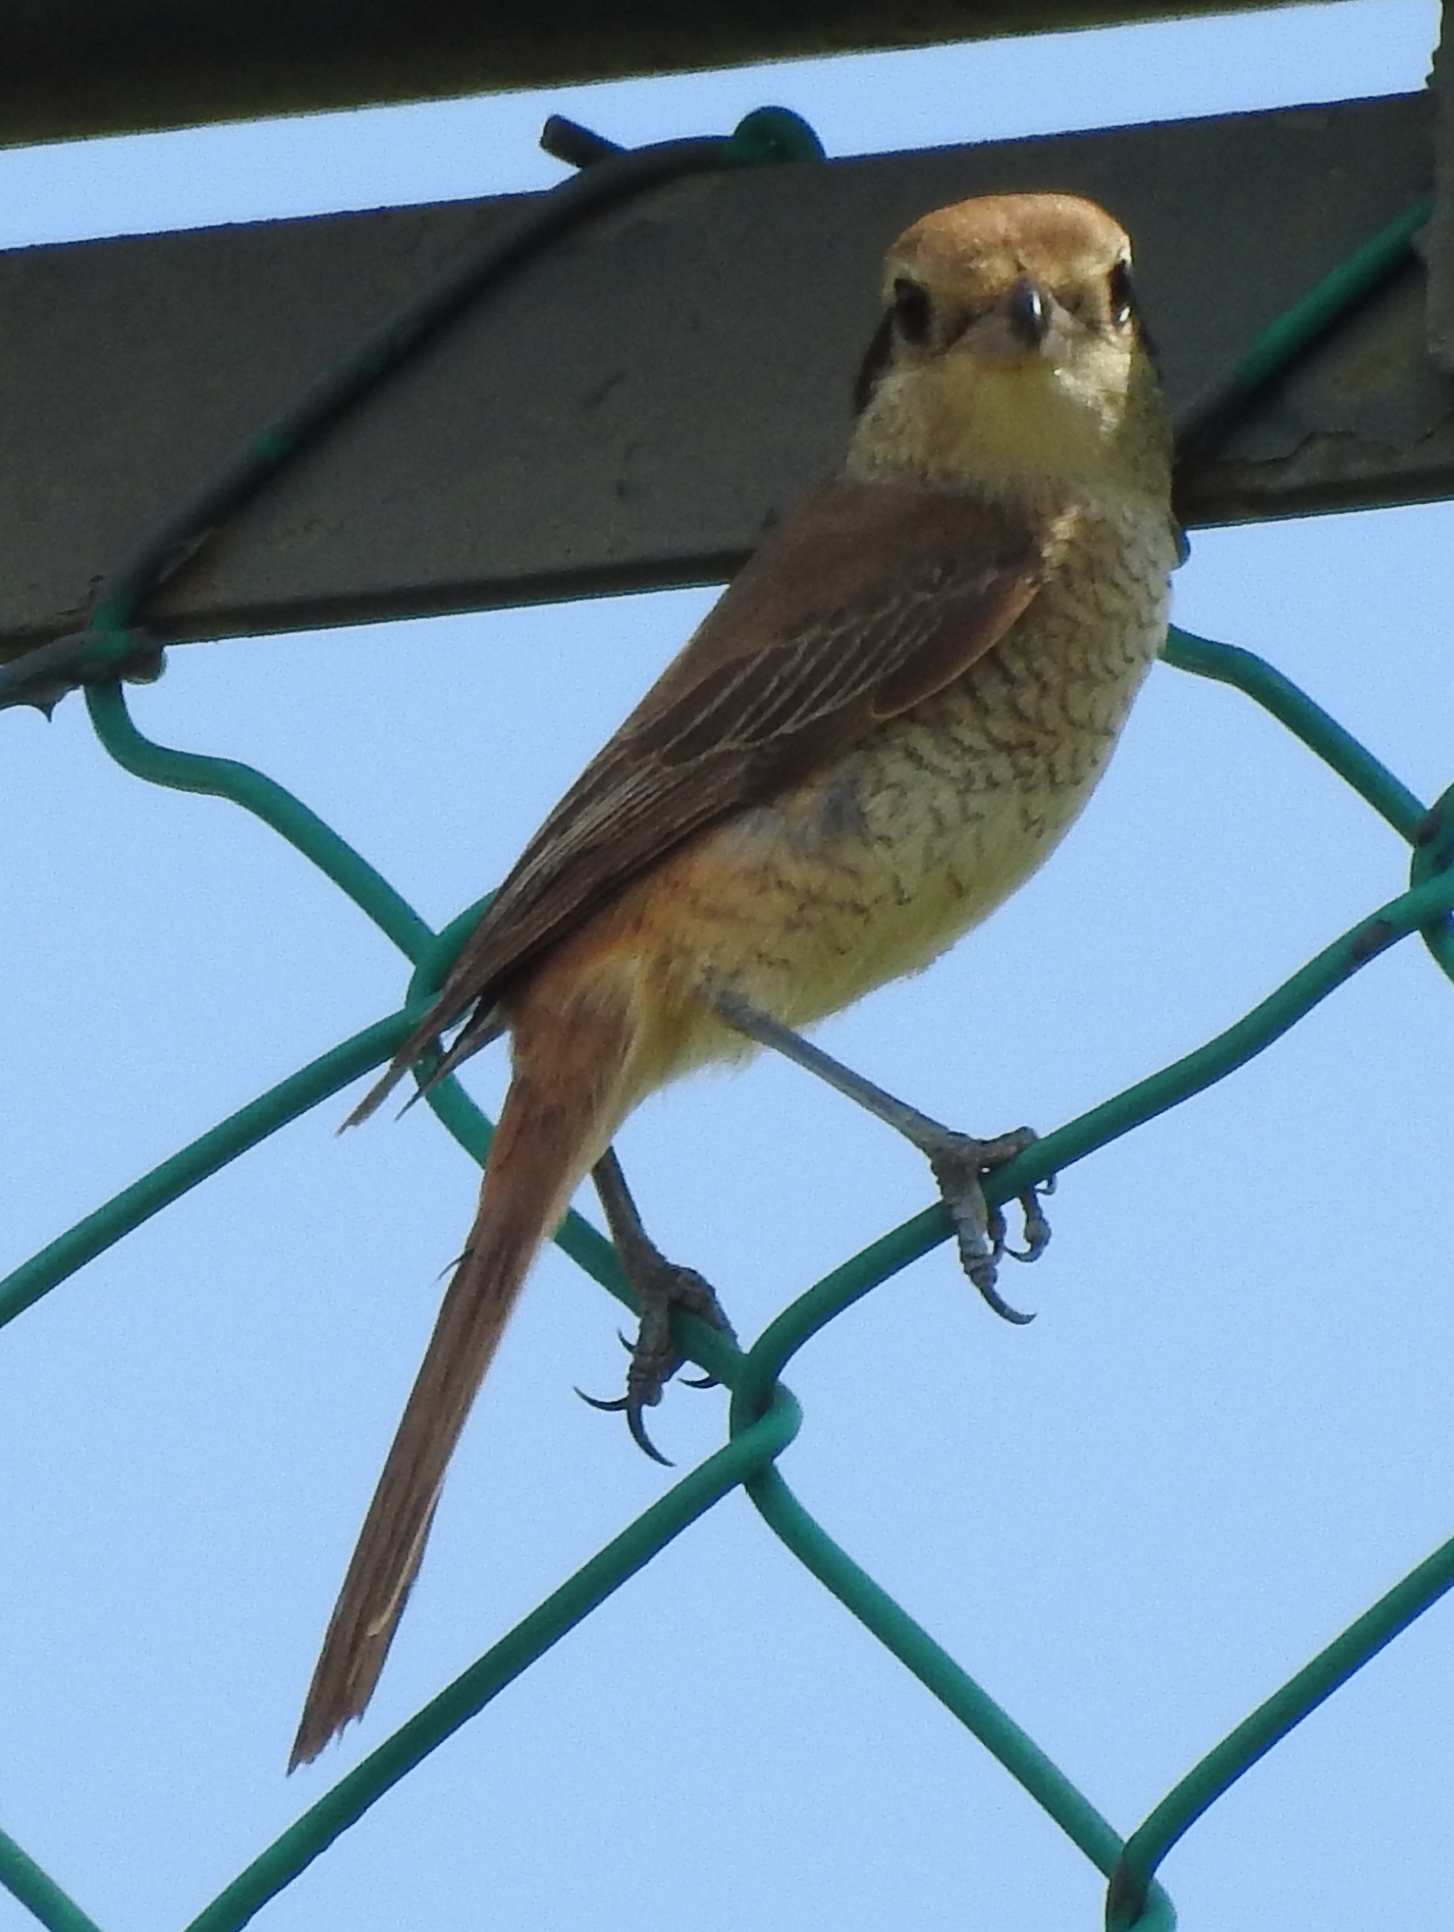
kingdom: Animalia
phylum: Chordata
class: Aves
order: Passeriformes
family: Laniidae
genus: Lanius
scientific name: Lanius cristatus
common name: Brown shrike
